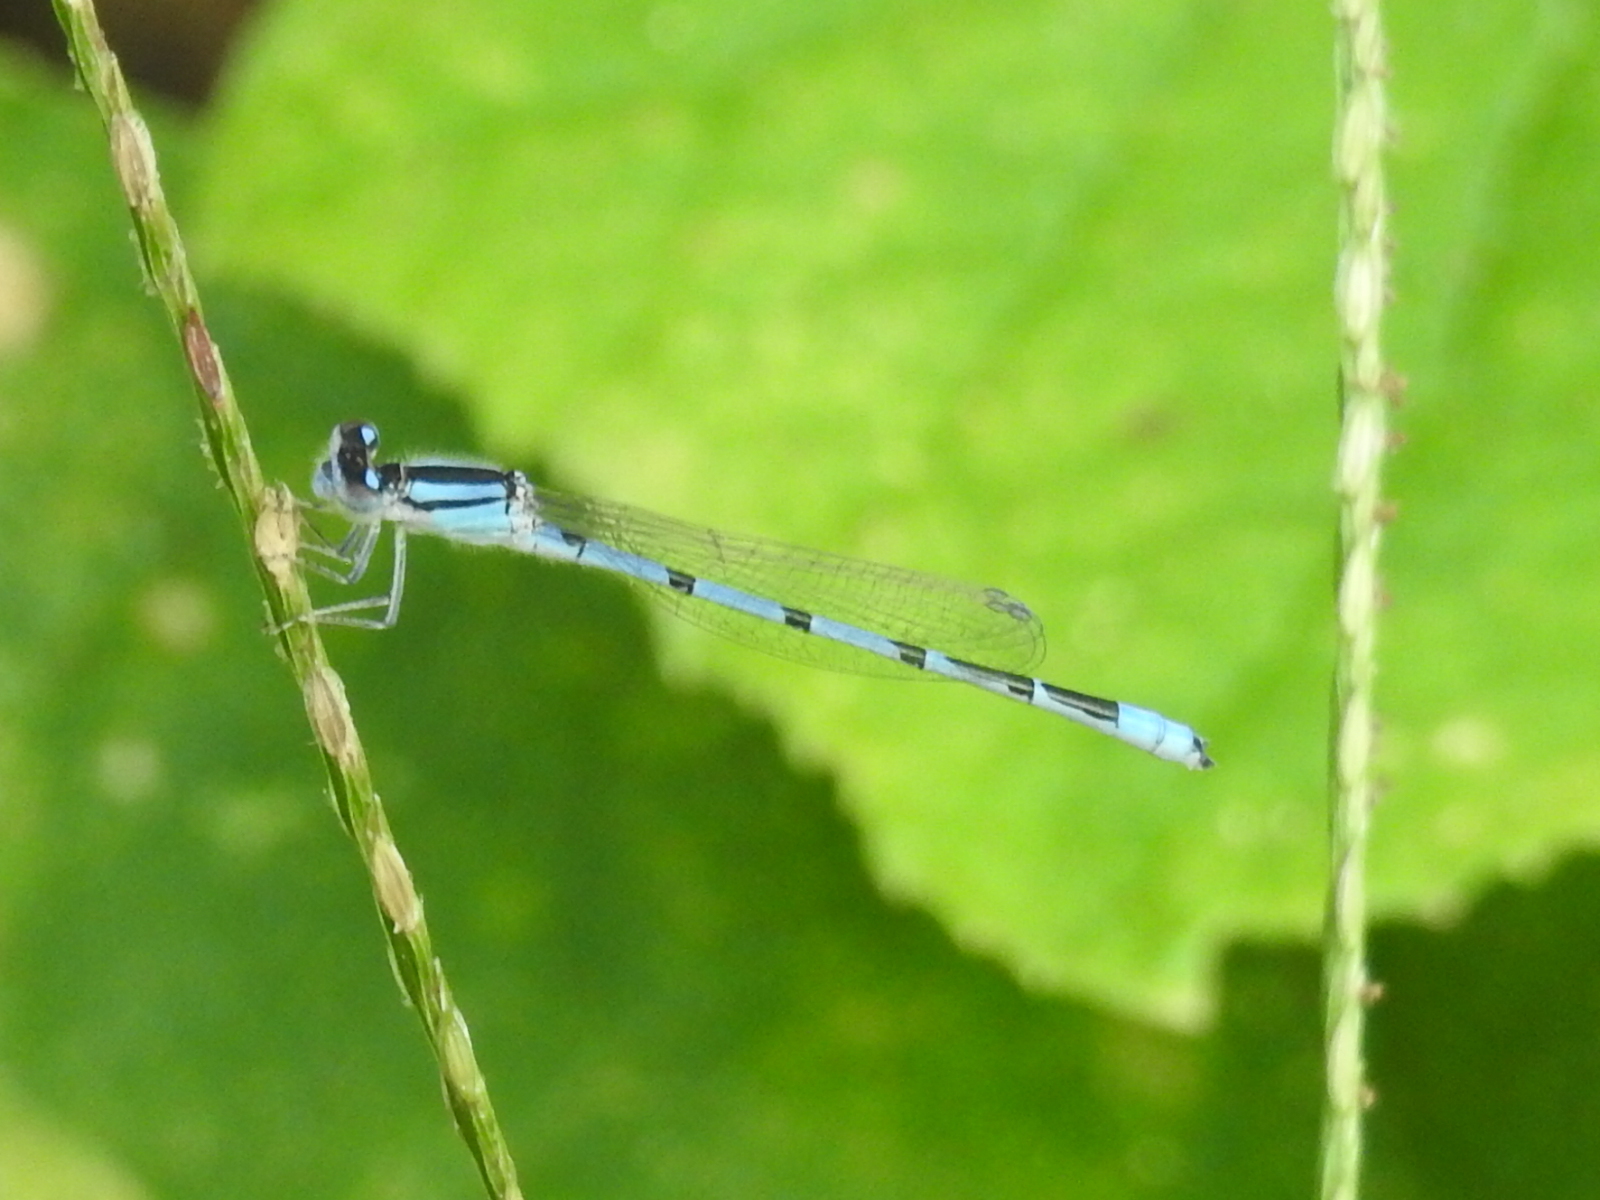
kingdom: Animalia
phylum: Arthropoda
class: Insecta
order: Odonata
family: Coenagrionidae
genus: Enallagma
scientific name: Enallagma civile
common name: Damselfly
